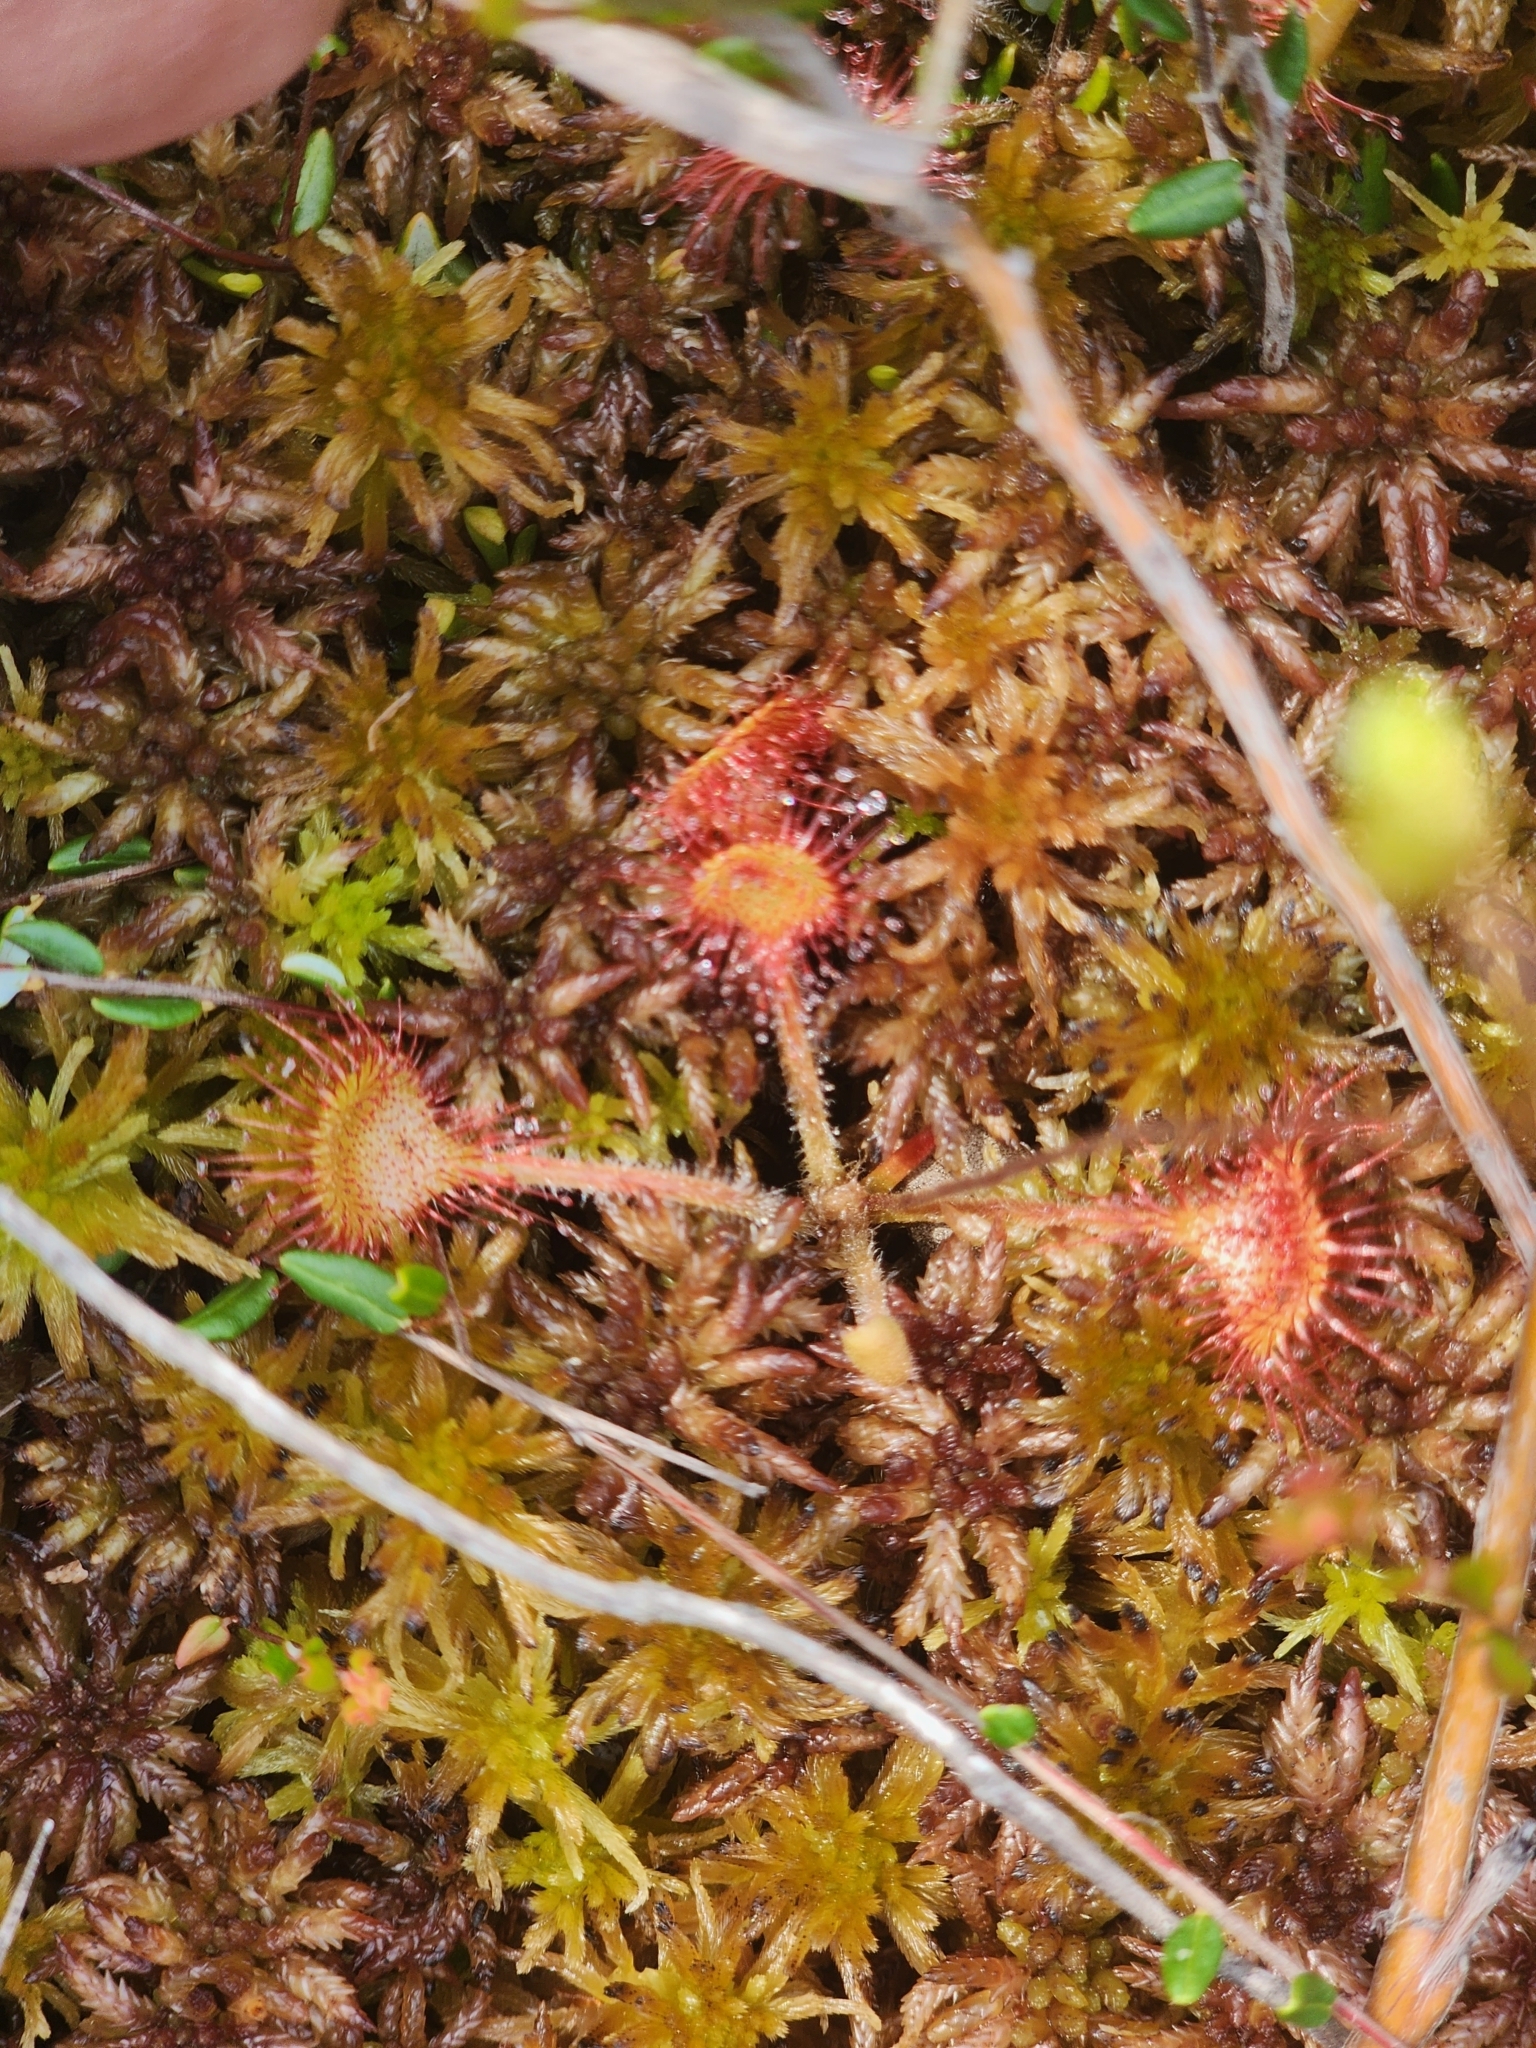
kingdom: Plantae
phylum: Tracheophyta
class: Magnoliopsida
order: Caryophyllales
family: Droseraceae
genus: Drosera
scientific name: Drosera rotundifolia
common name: Round-leaved sundew
